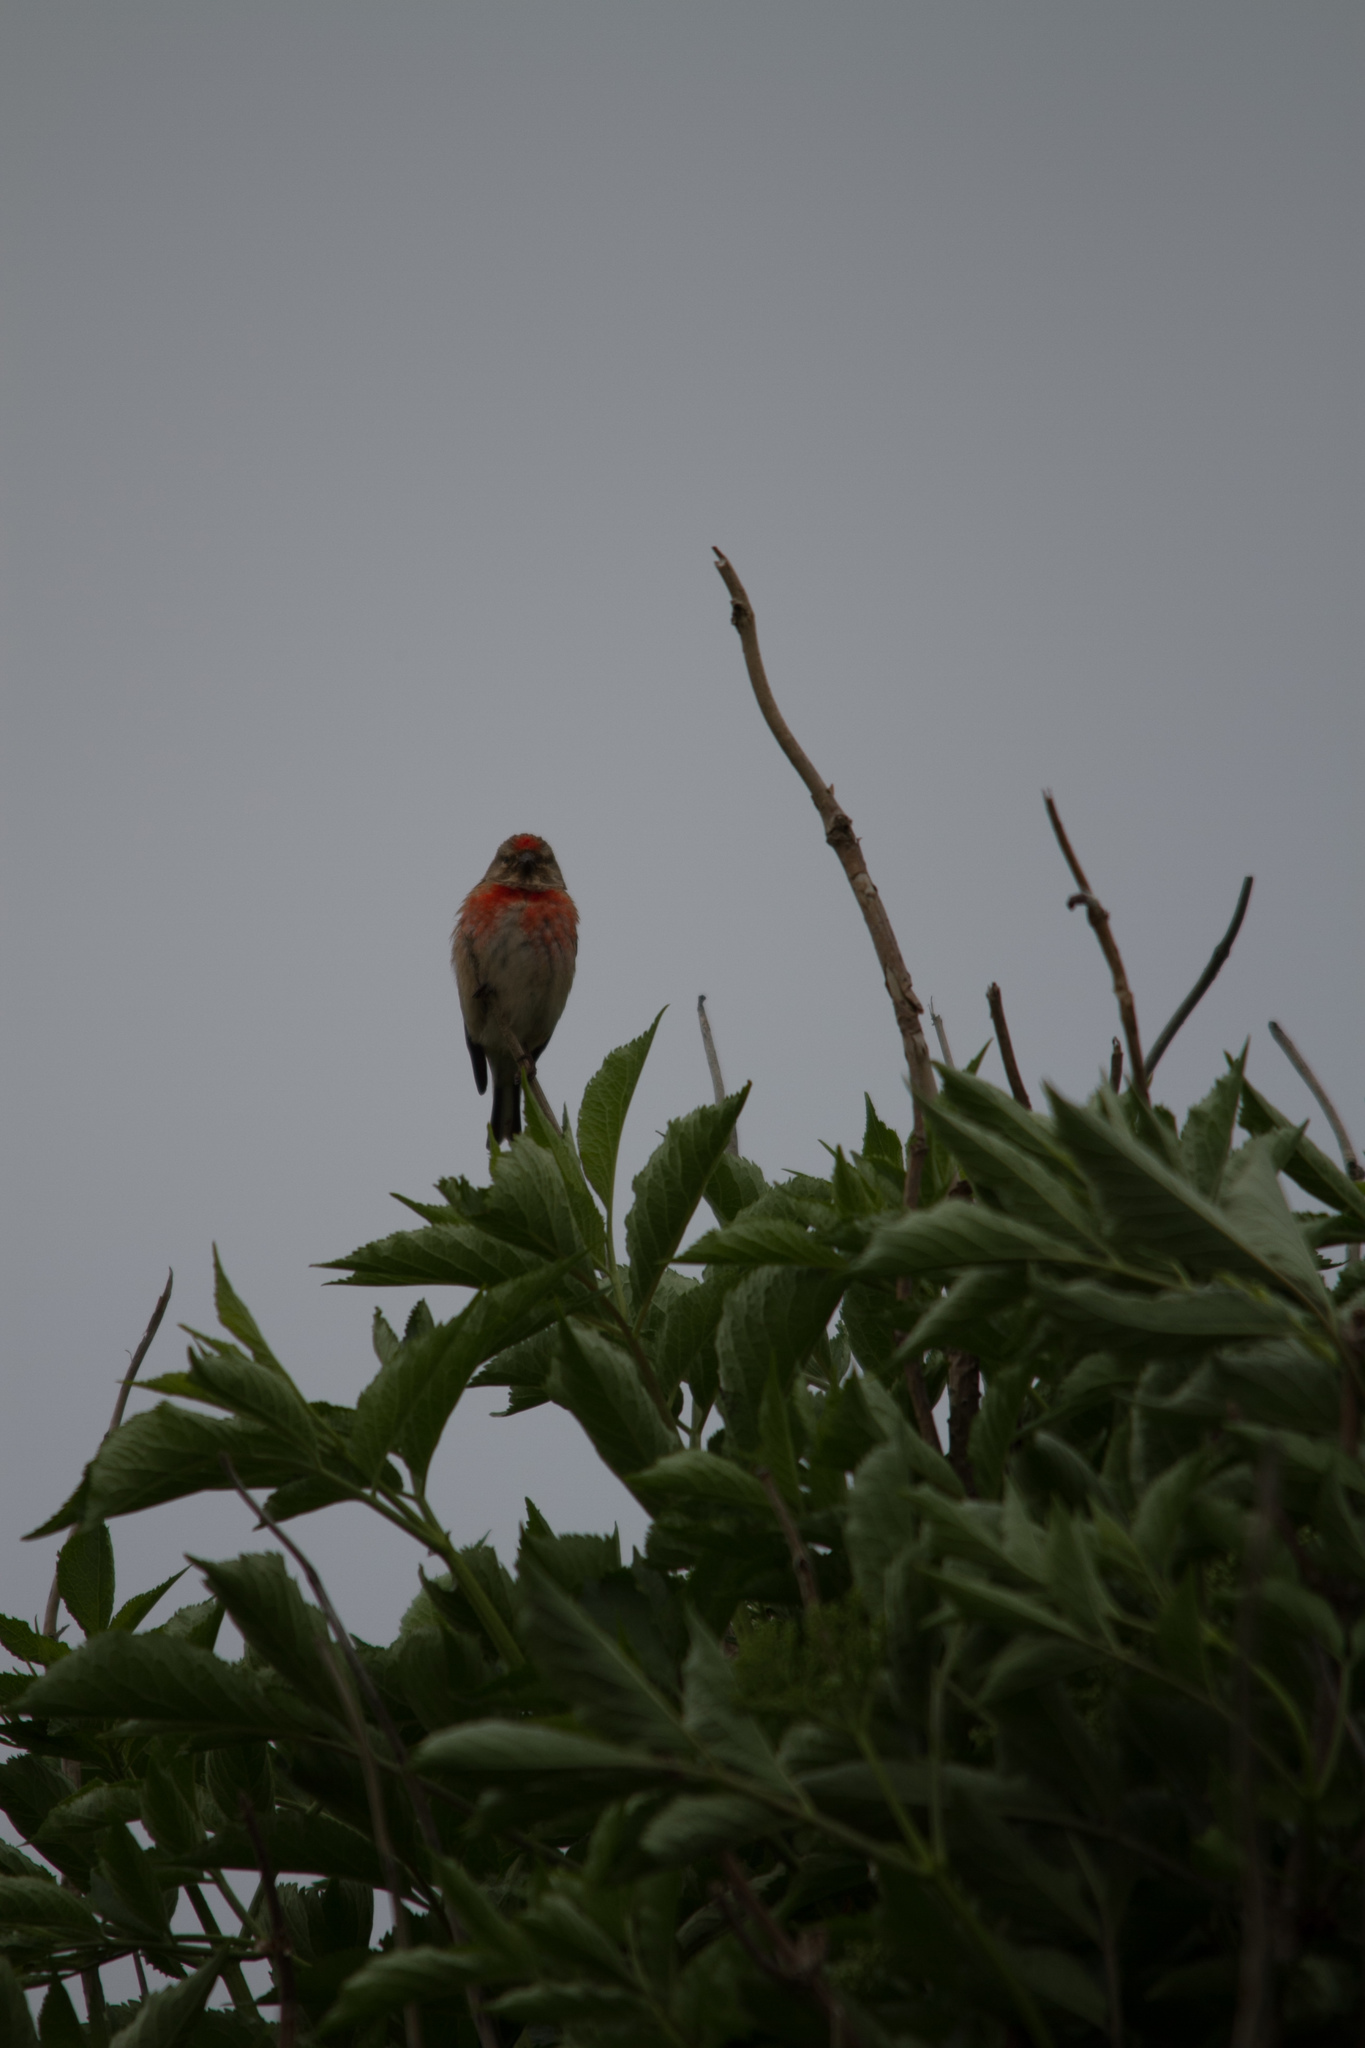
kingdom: Animalia
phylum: Chordata
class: Aves
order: Passeriformes
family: Fringillidae
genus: Linaria
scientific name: Linaria cannabina
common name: Common linnet
